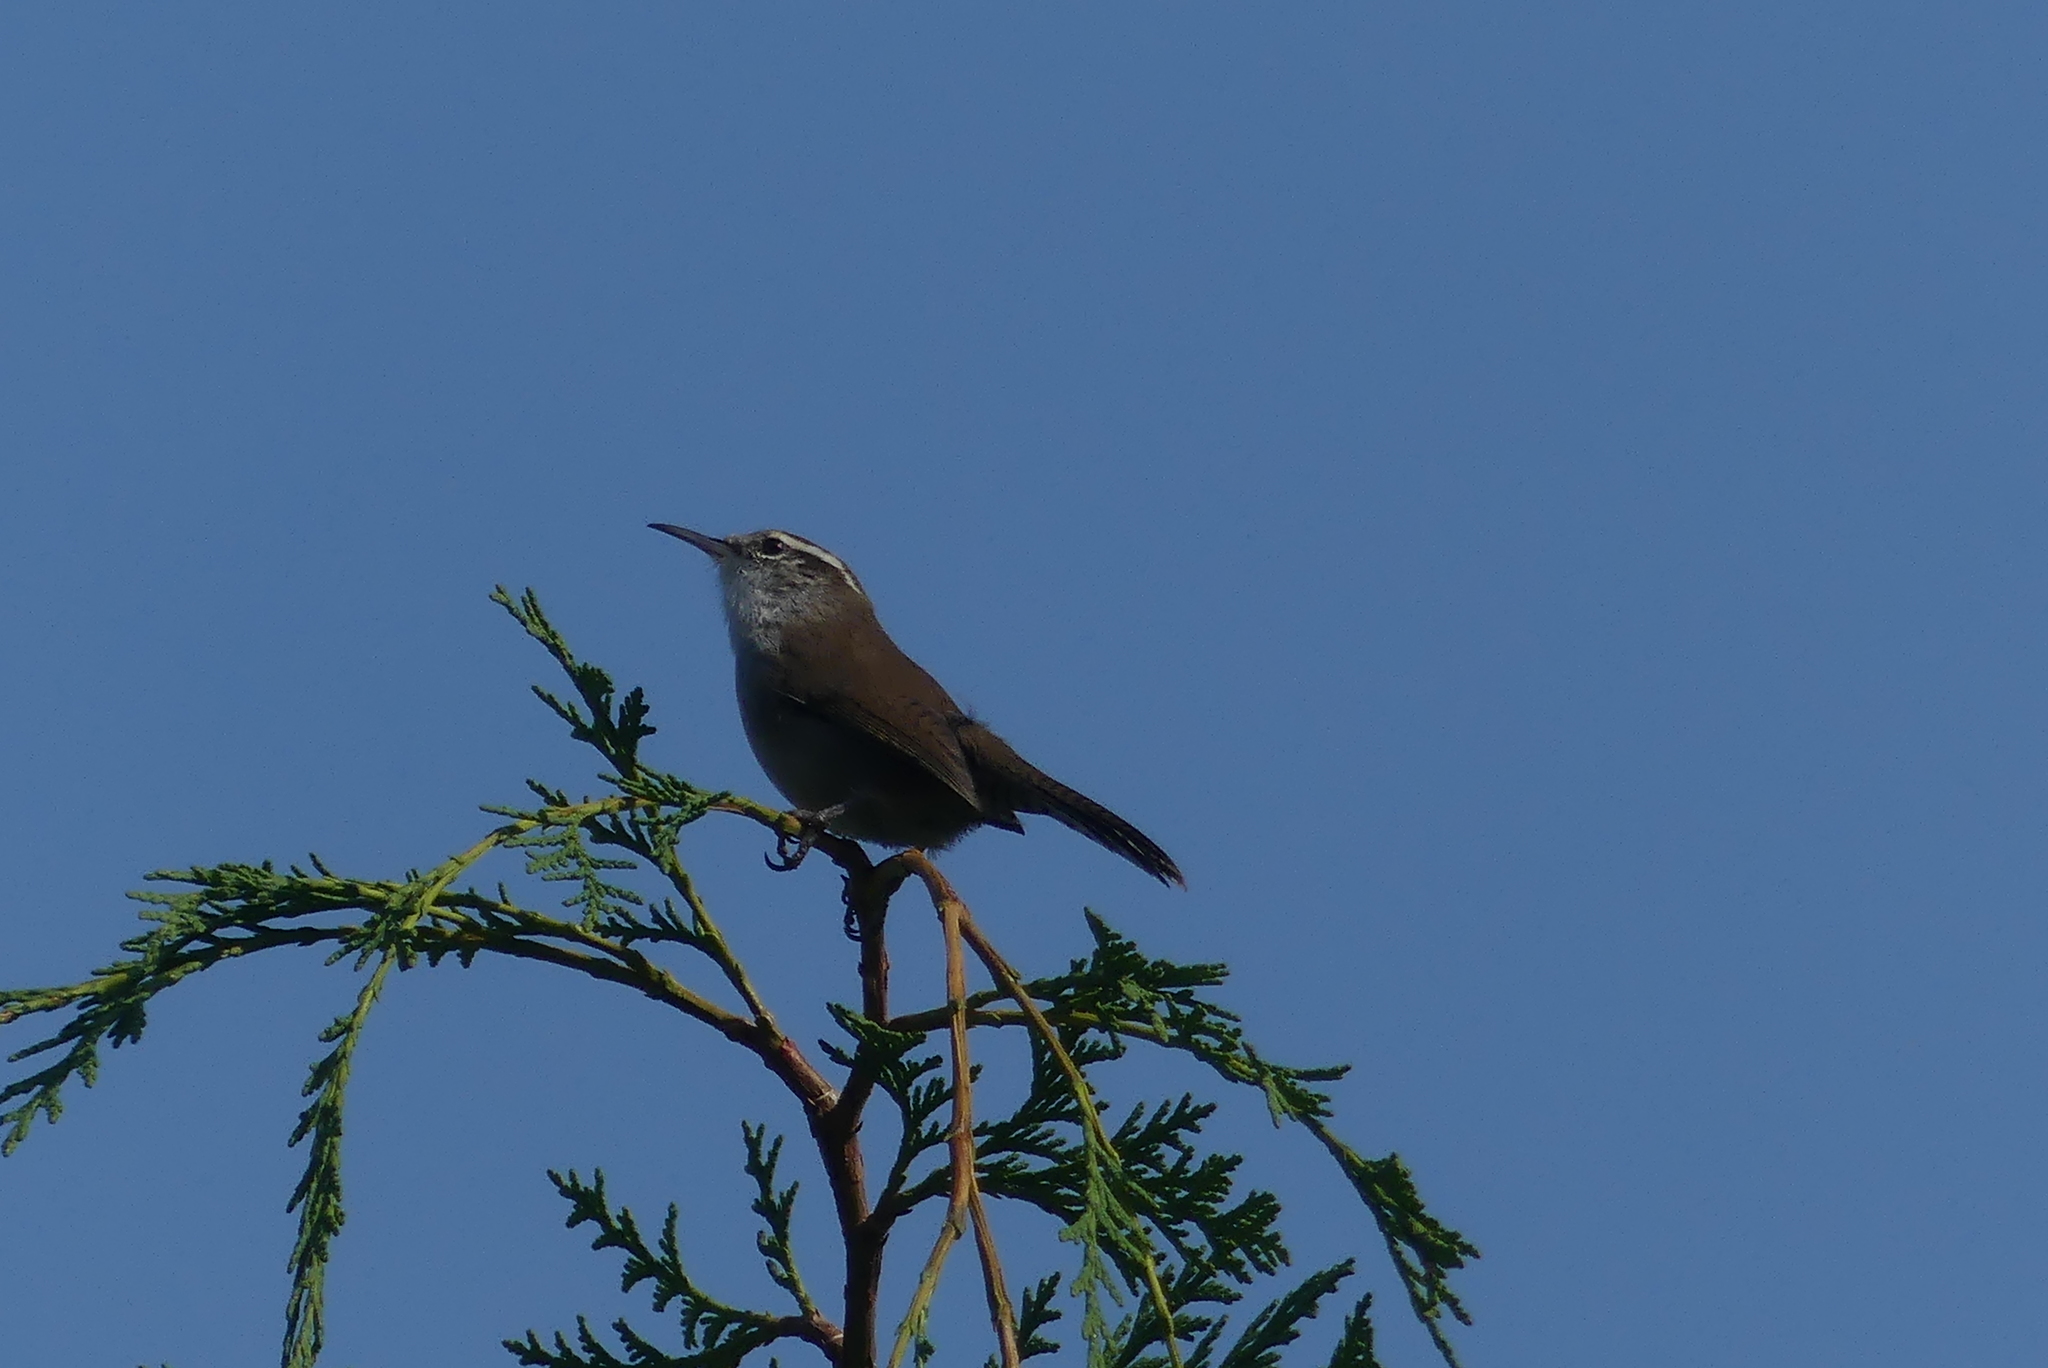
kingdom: Animalia
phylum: Chordata
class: Aves
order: Passeriformes
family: Troglodytidae
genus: Thryomanes
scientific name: Thryomanes bewickii
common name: Bewick's wren
